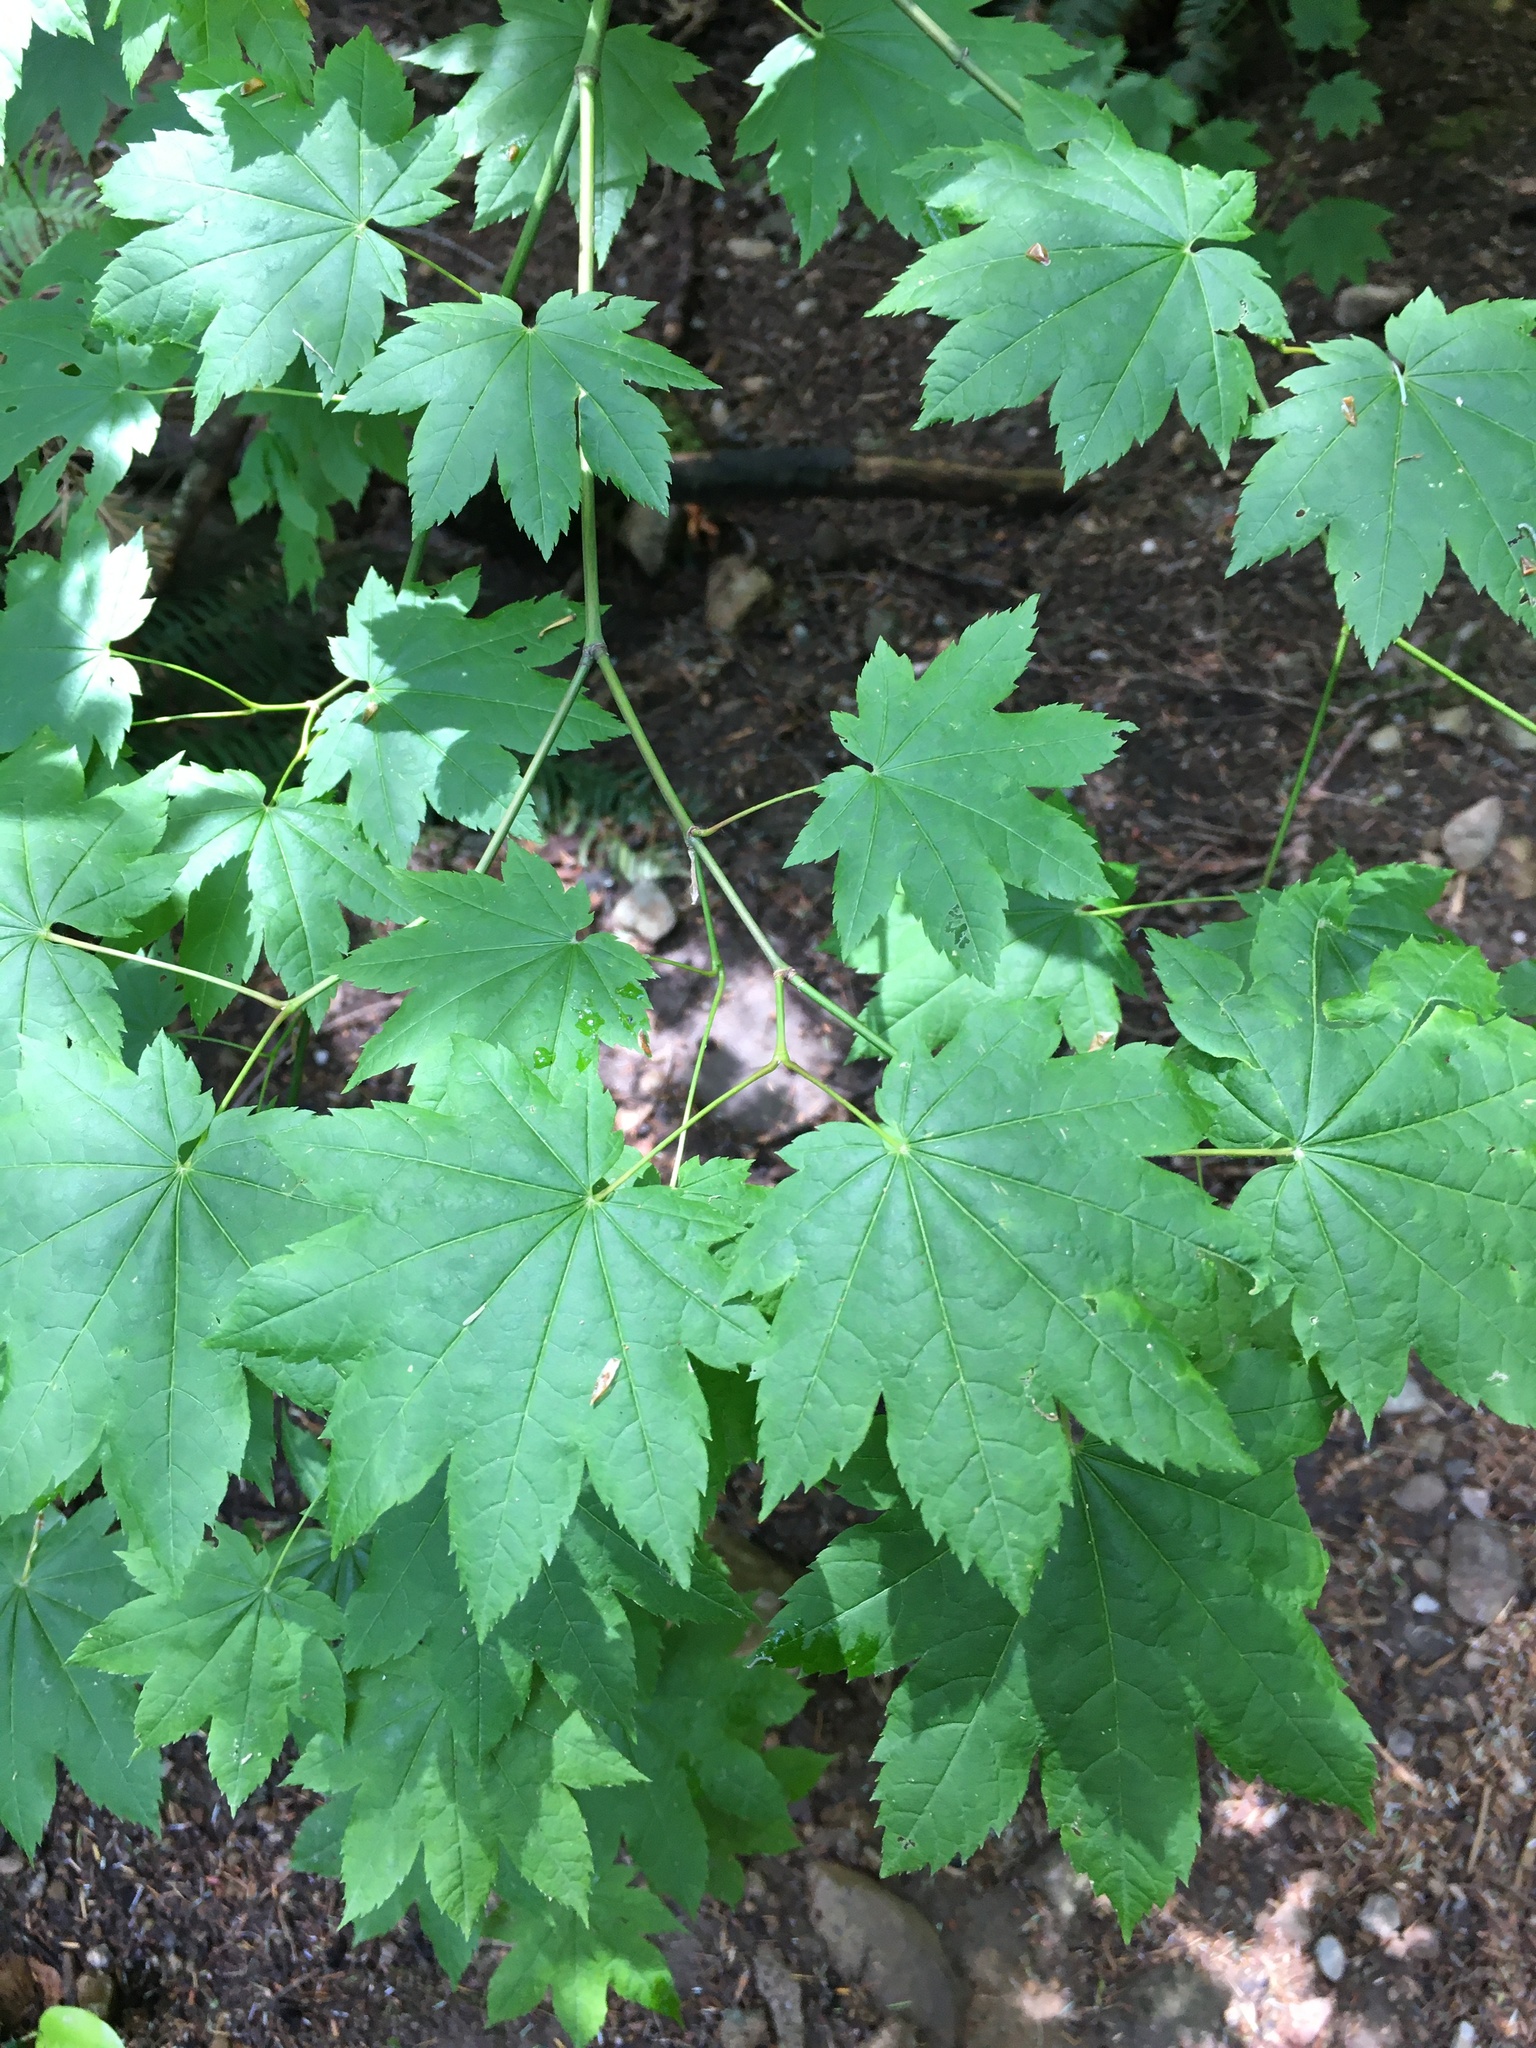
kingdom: Plantae
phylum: Tracheophyta
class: Magnoliopsida
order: Sapindales
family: Sapindaceae
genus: Acer
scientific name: Acer circinatum
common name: Vine maple
